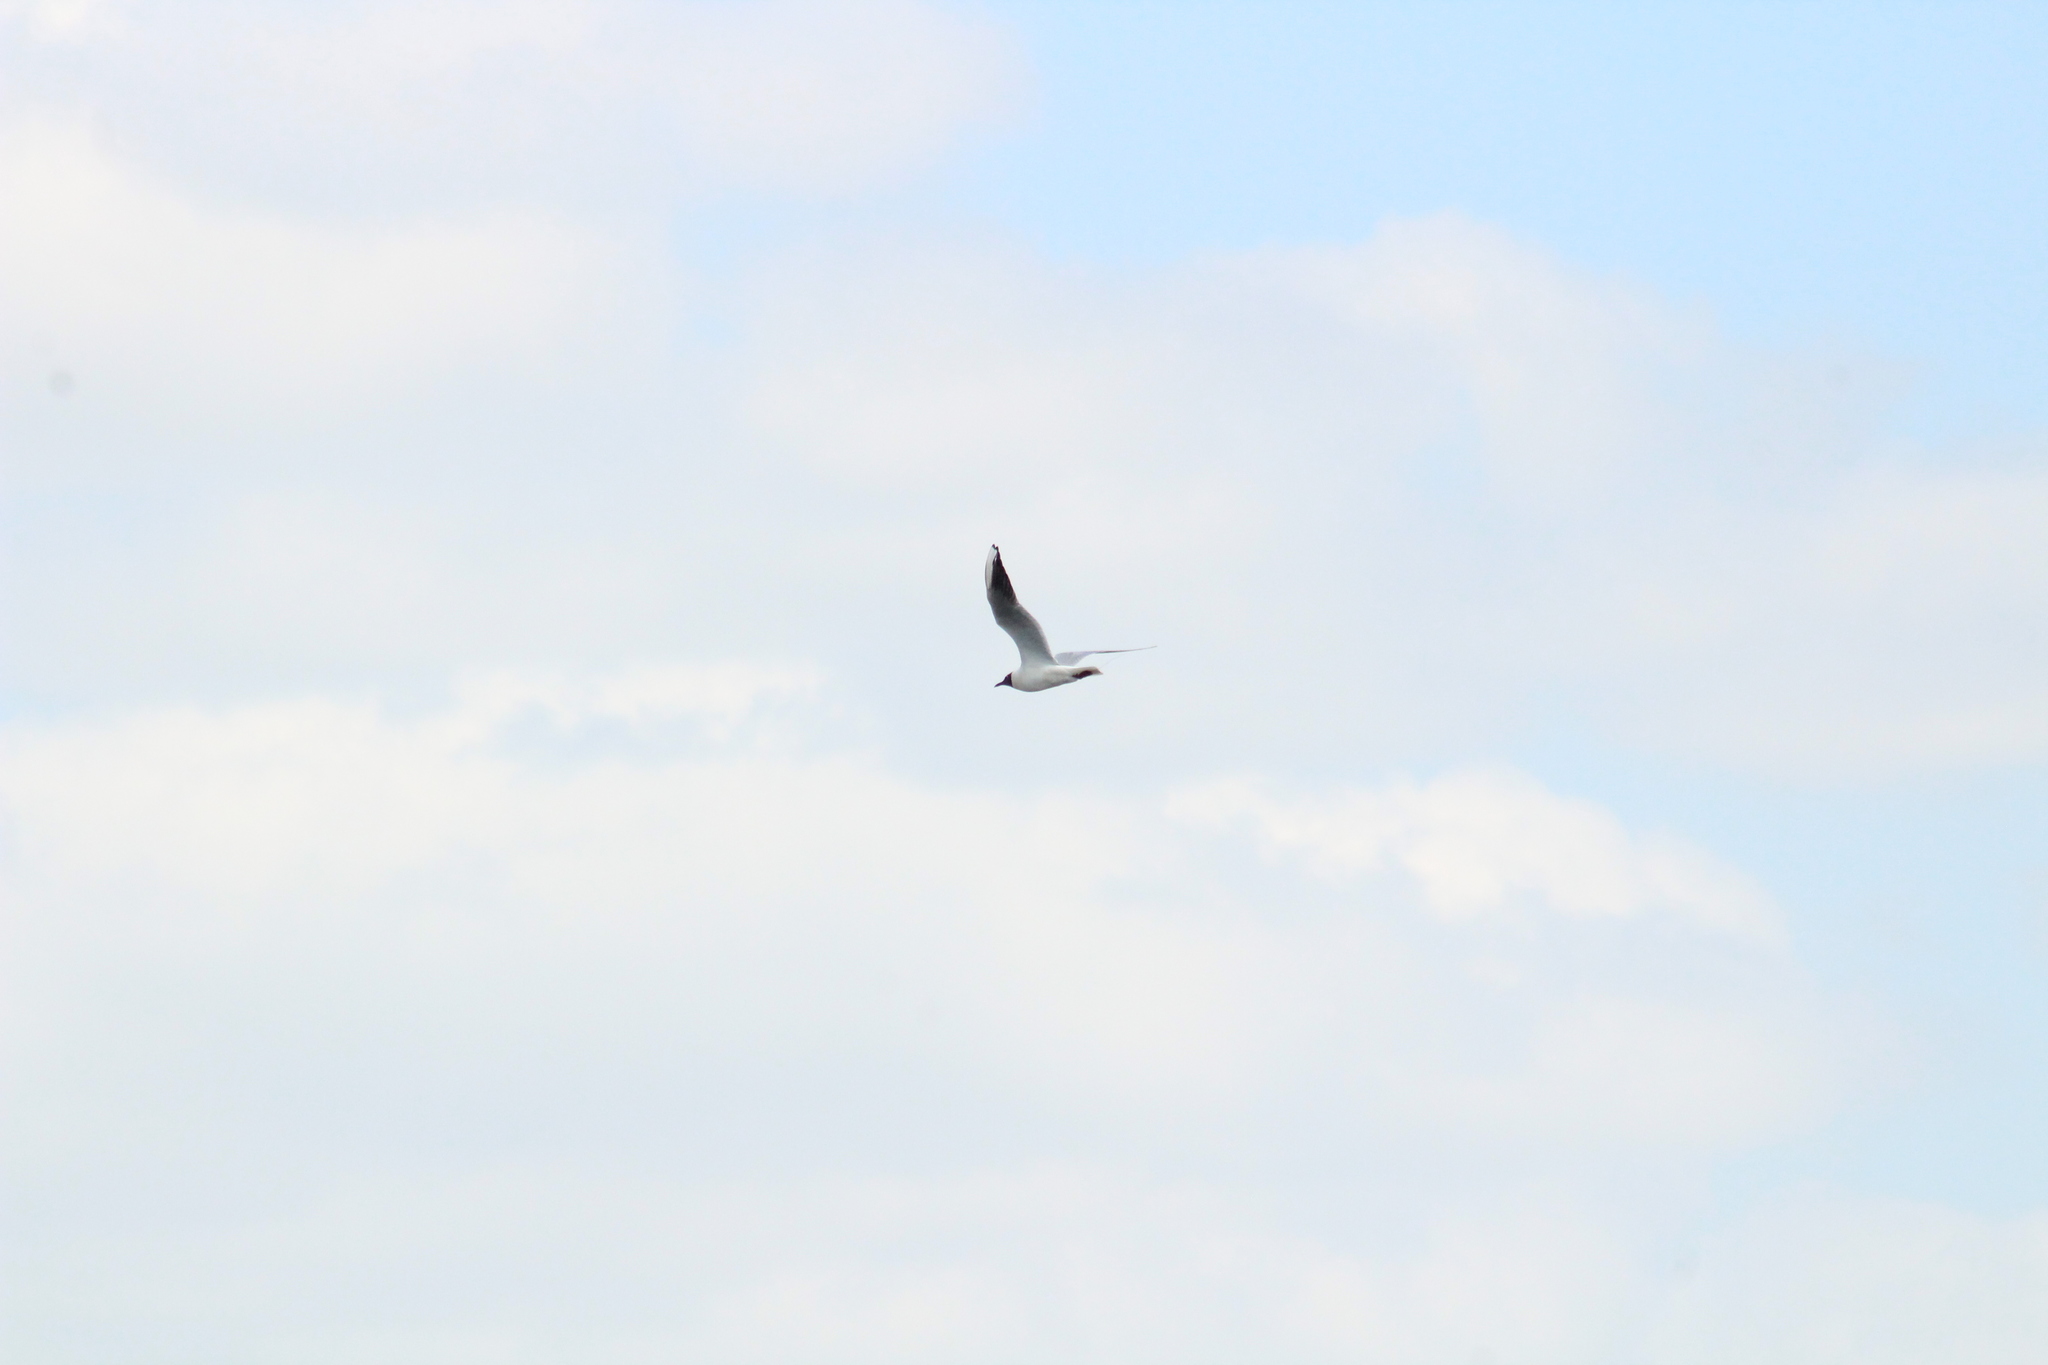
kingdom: Animalia
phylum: Chordata
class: Aves
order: Charadriiformes
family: Laridae
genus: Chroicocephalus
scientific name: Chroicocephalus ridibundus
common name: Black-headed gull
